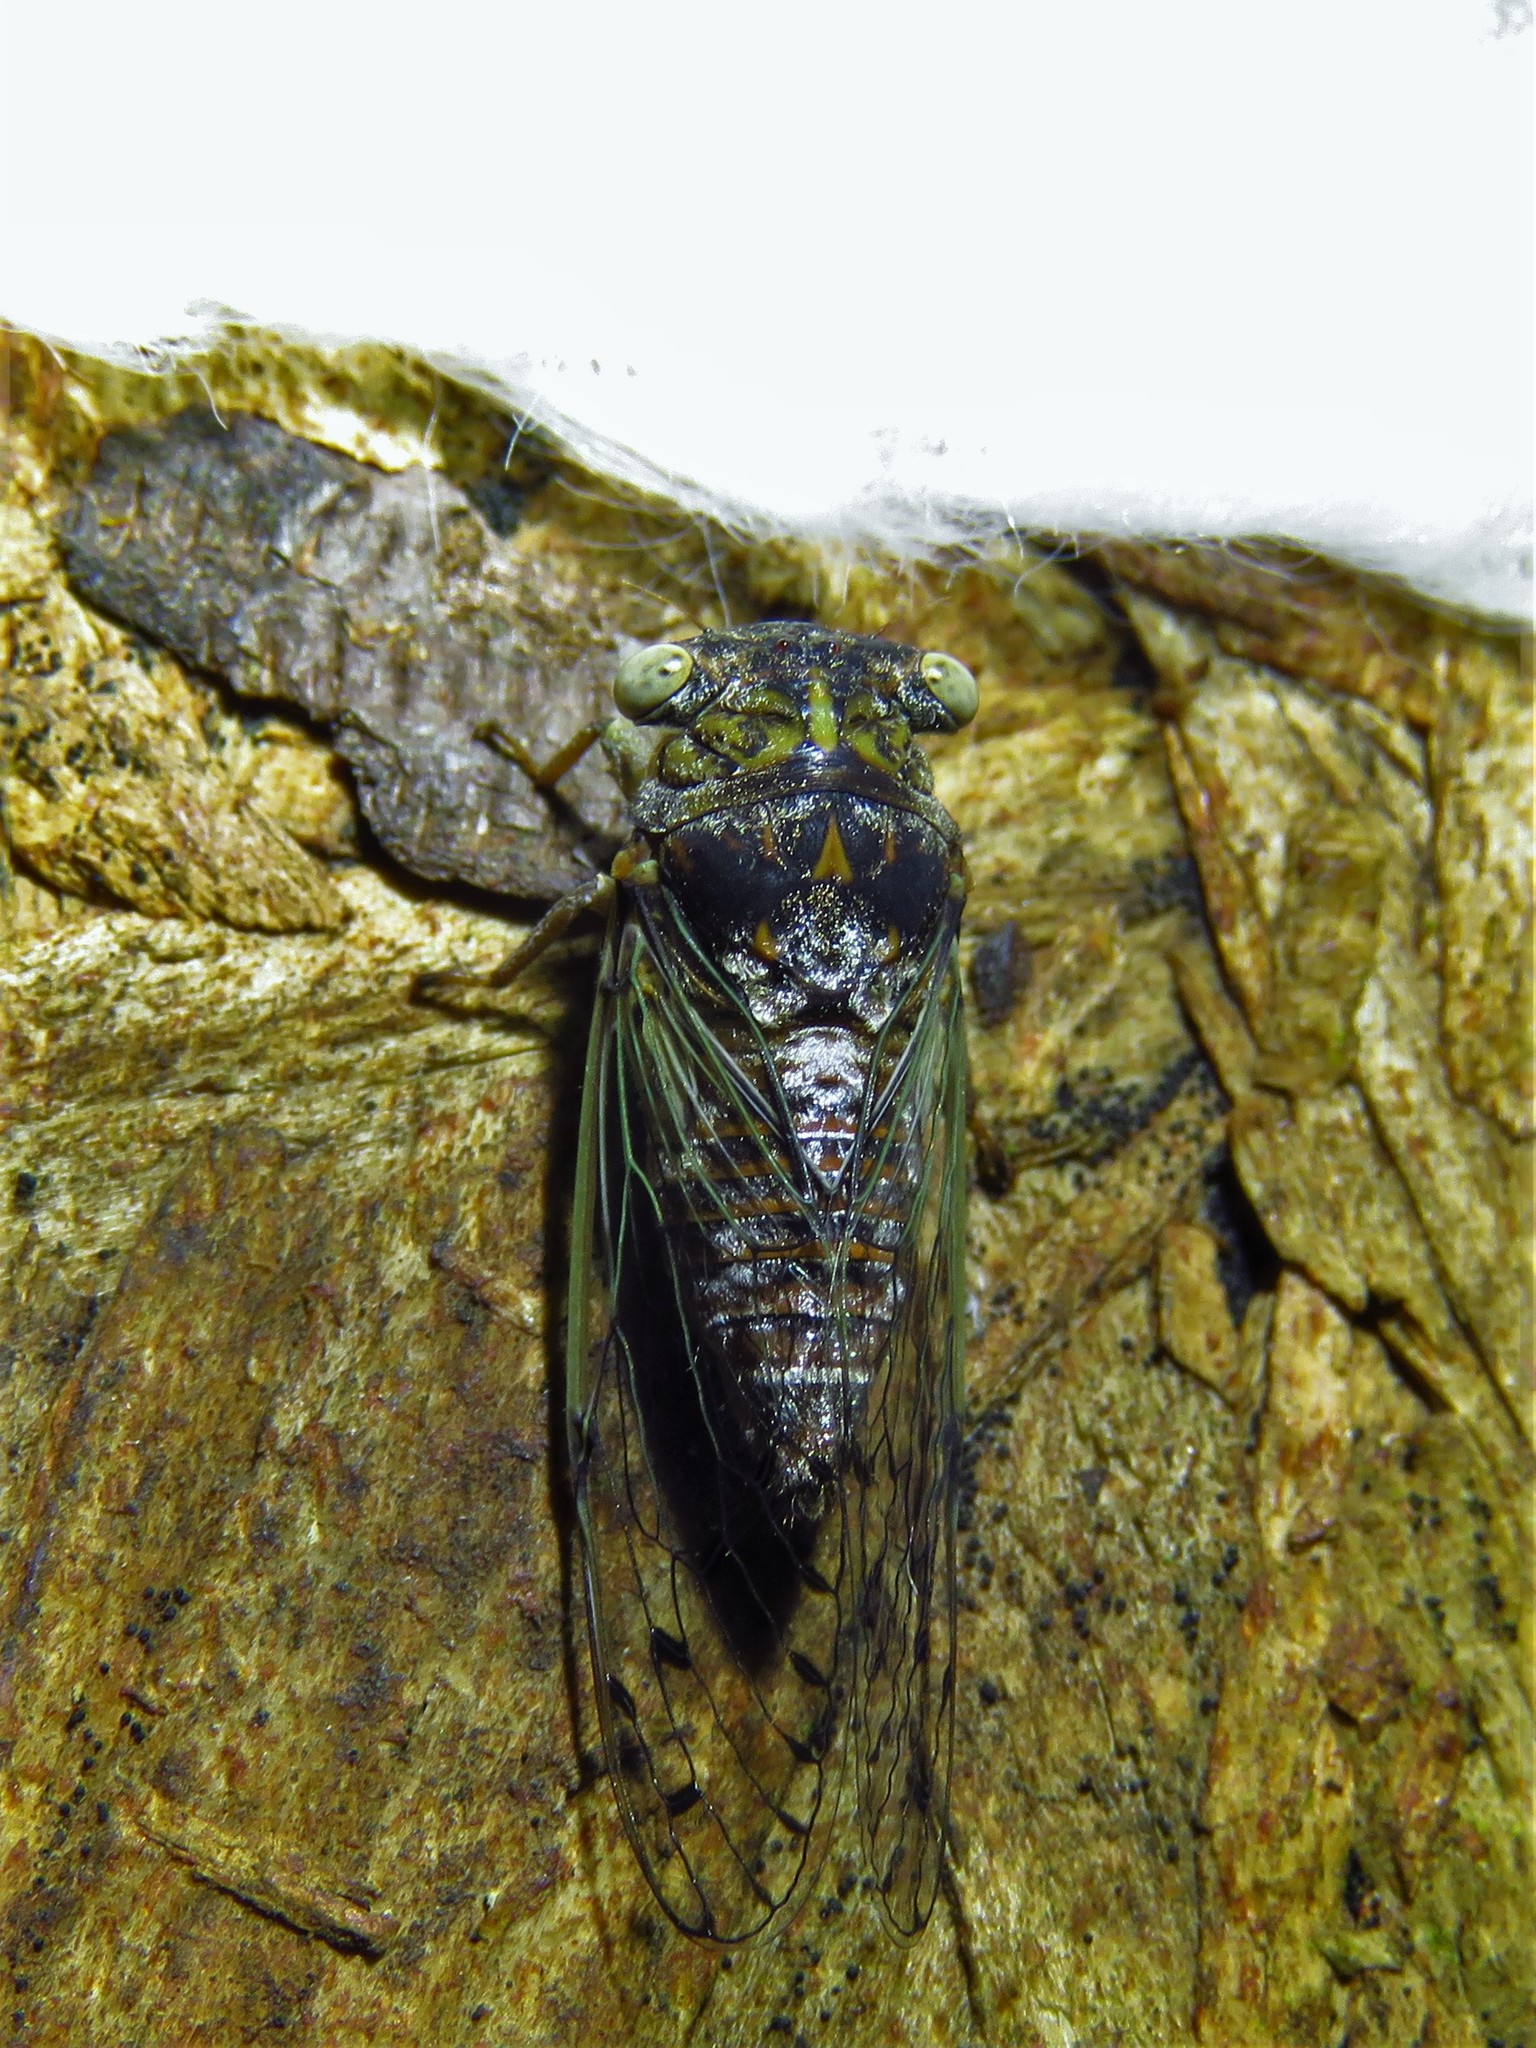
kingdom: Animalia
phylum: Arthropoda
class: Insecta
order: Hemiptera
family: Cicadidae
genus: Pacarina
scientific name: Pacarina puella
